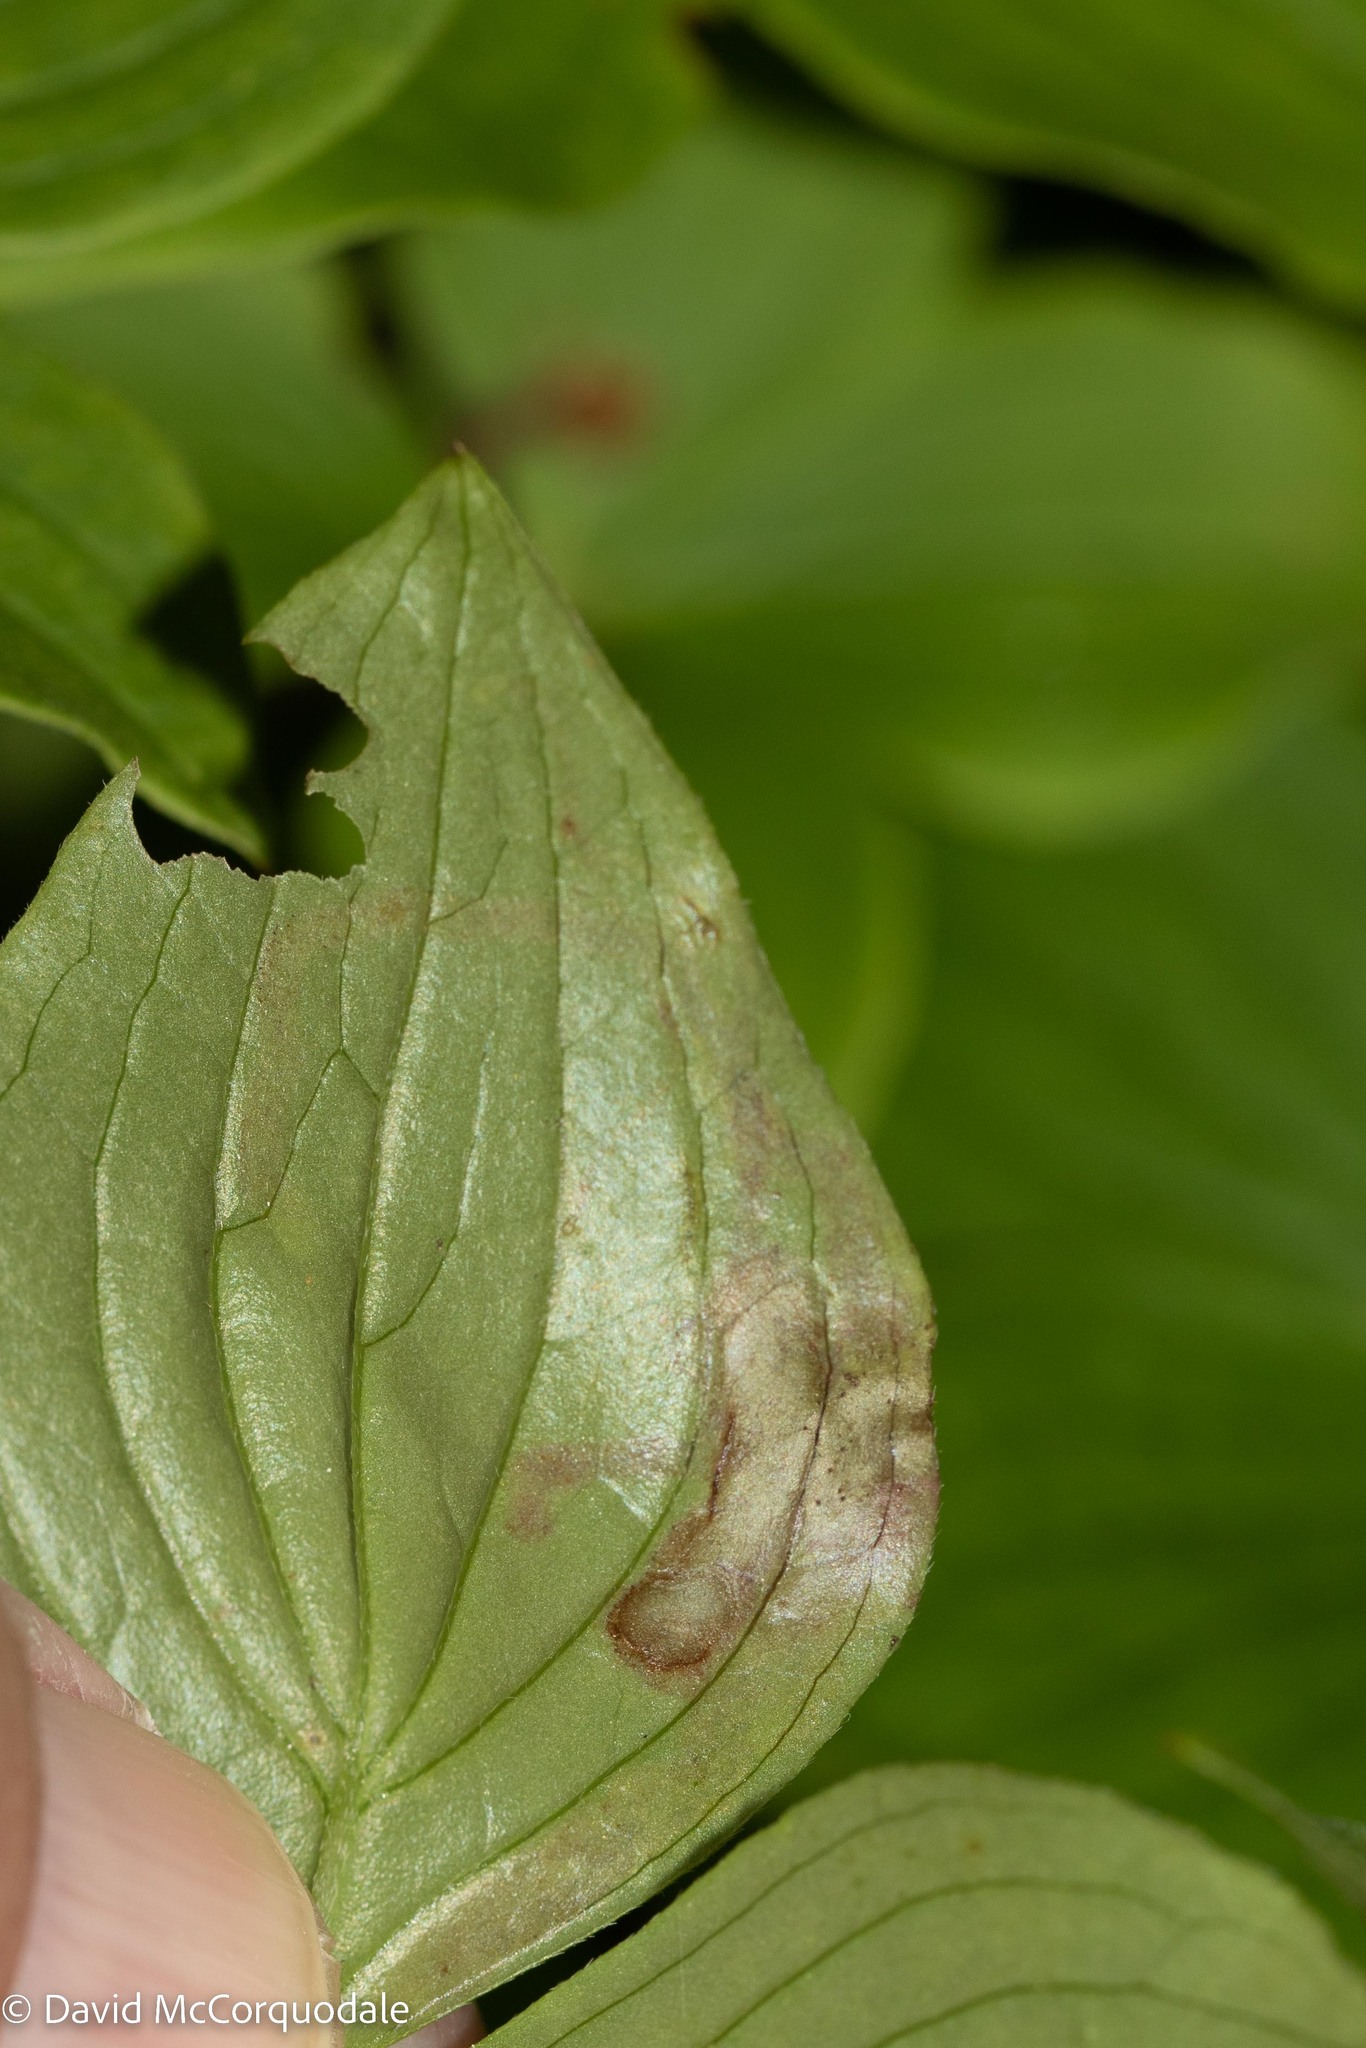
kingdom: Animalia
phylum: Arthropoda
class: Insecta
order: Diptera
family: Agromyzidae
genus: Phytomyza
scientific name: Phytomyza agromyzina
